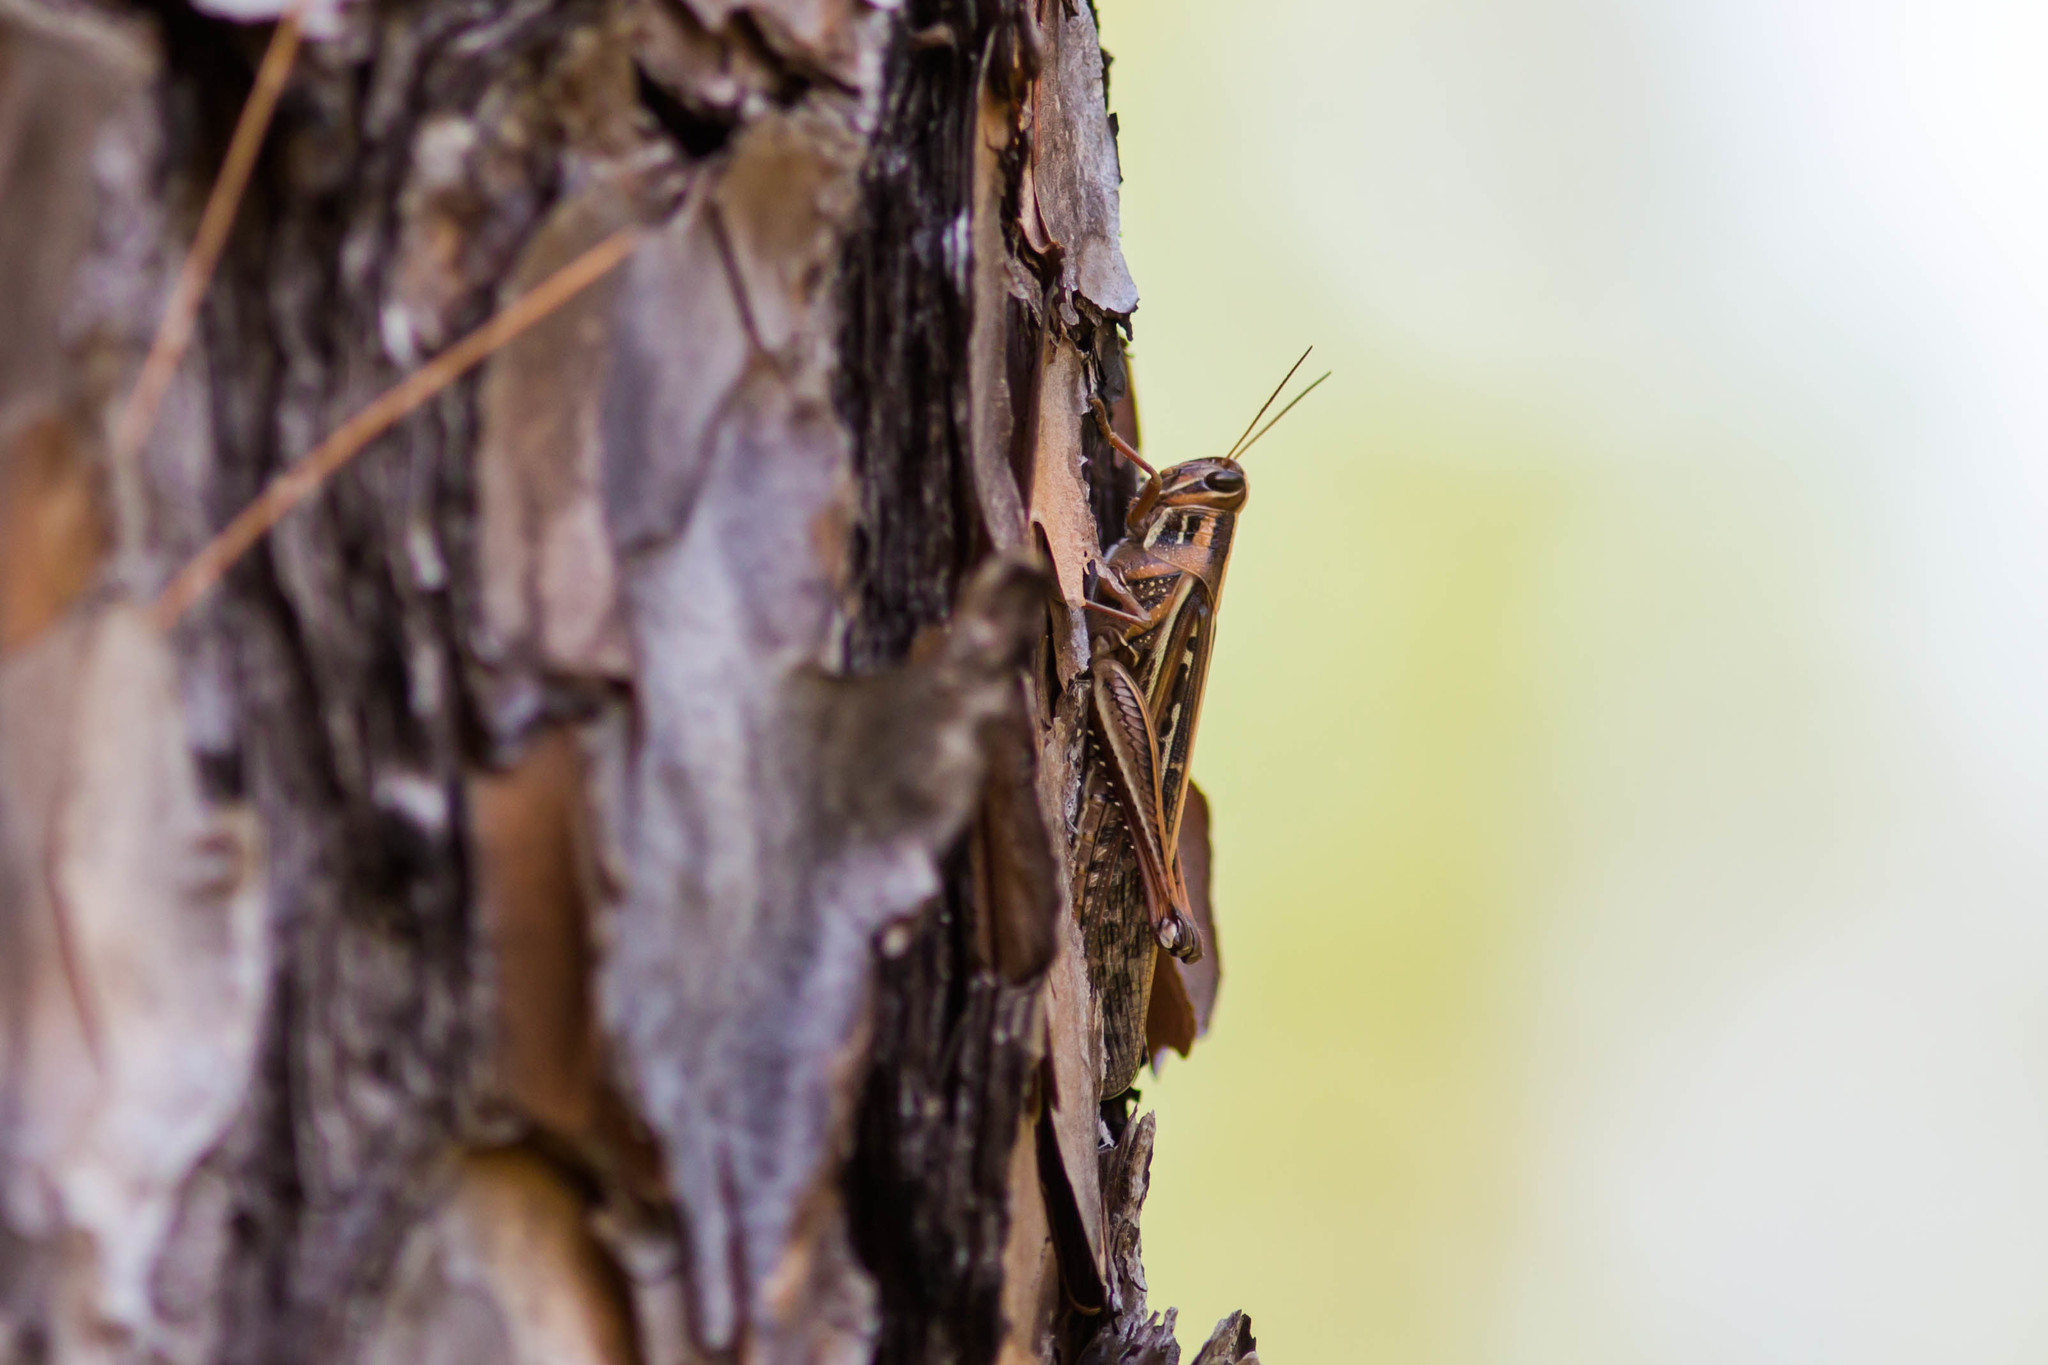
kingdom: Animalia
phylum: Arthropoda
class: Insecta
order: Orthoptera
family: Acrididae
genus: Schistocerca
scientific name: Schistocerca americana
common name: American bird locust
